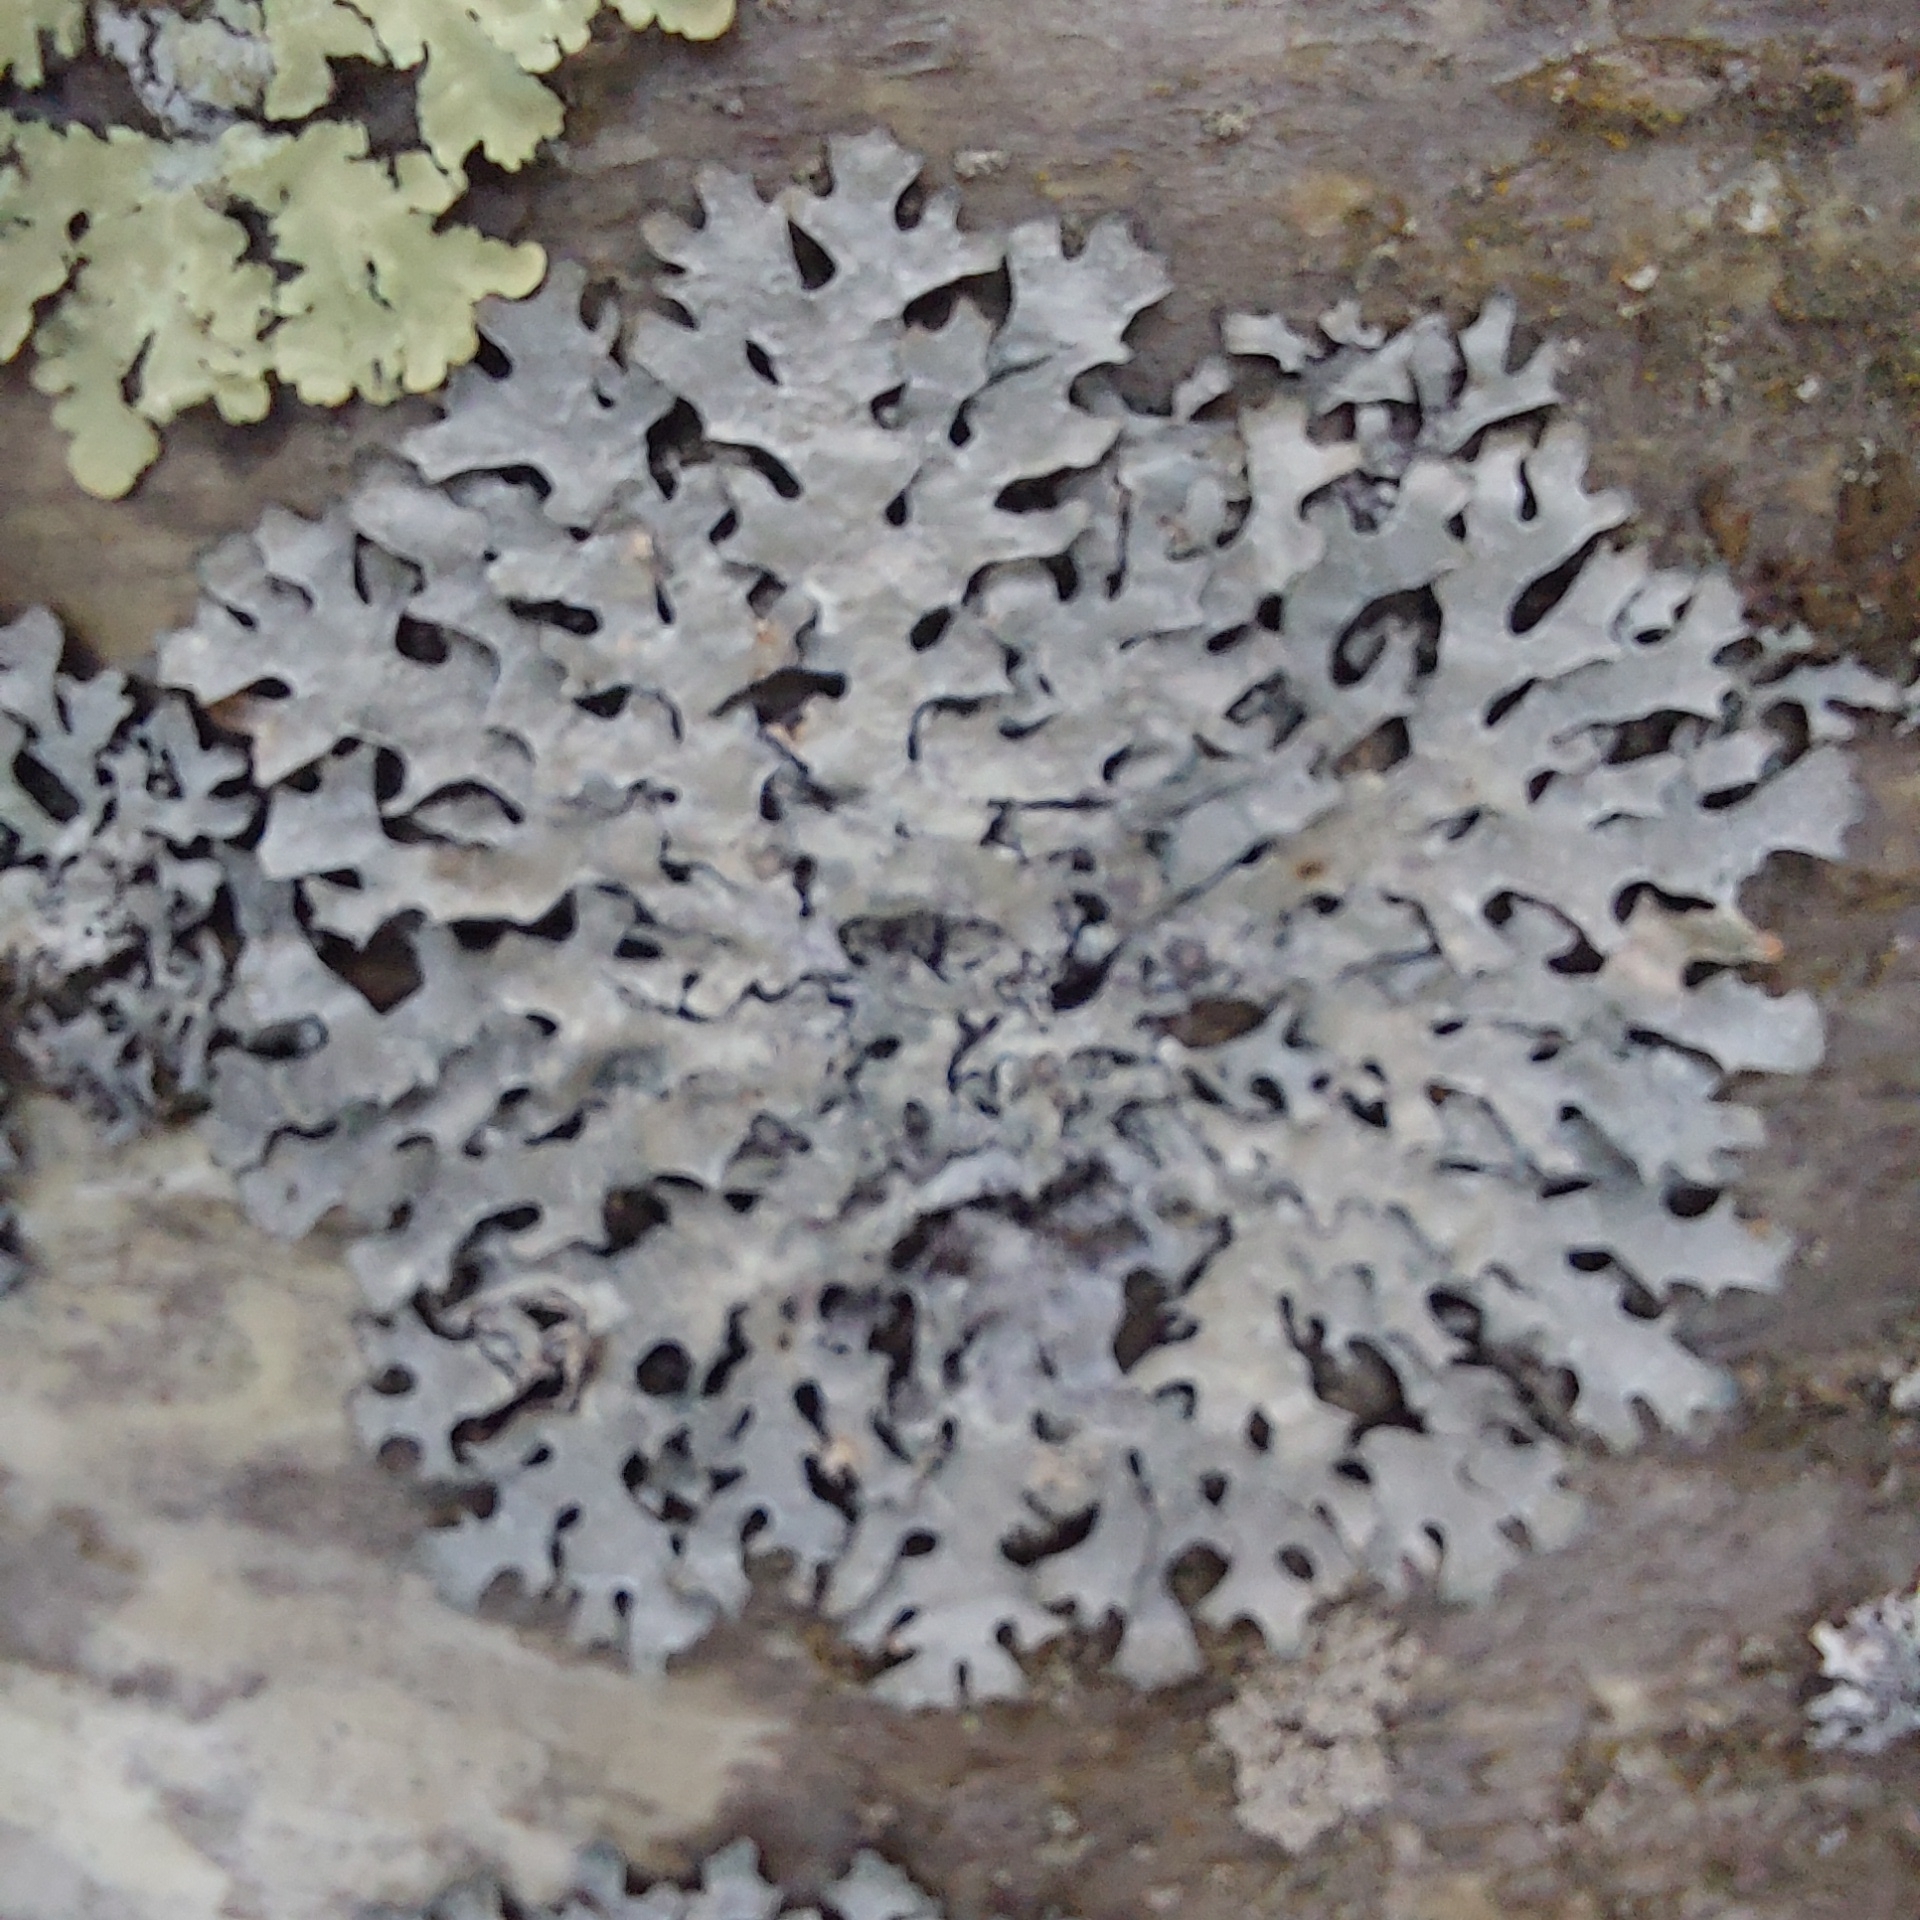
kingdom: Fungi
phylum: Ascomycota
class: Lecanoromycetes
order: Lecanorales
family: Parmeliaceae
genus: Parmelia
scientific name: Parmelia sulcata
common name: Netted shield lichen
